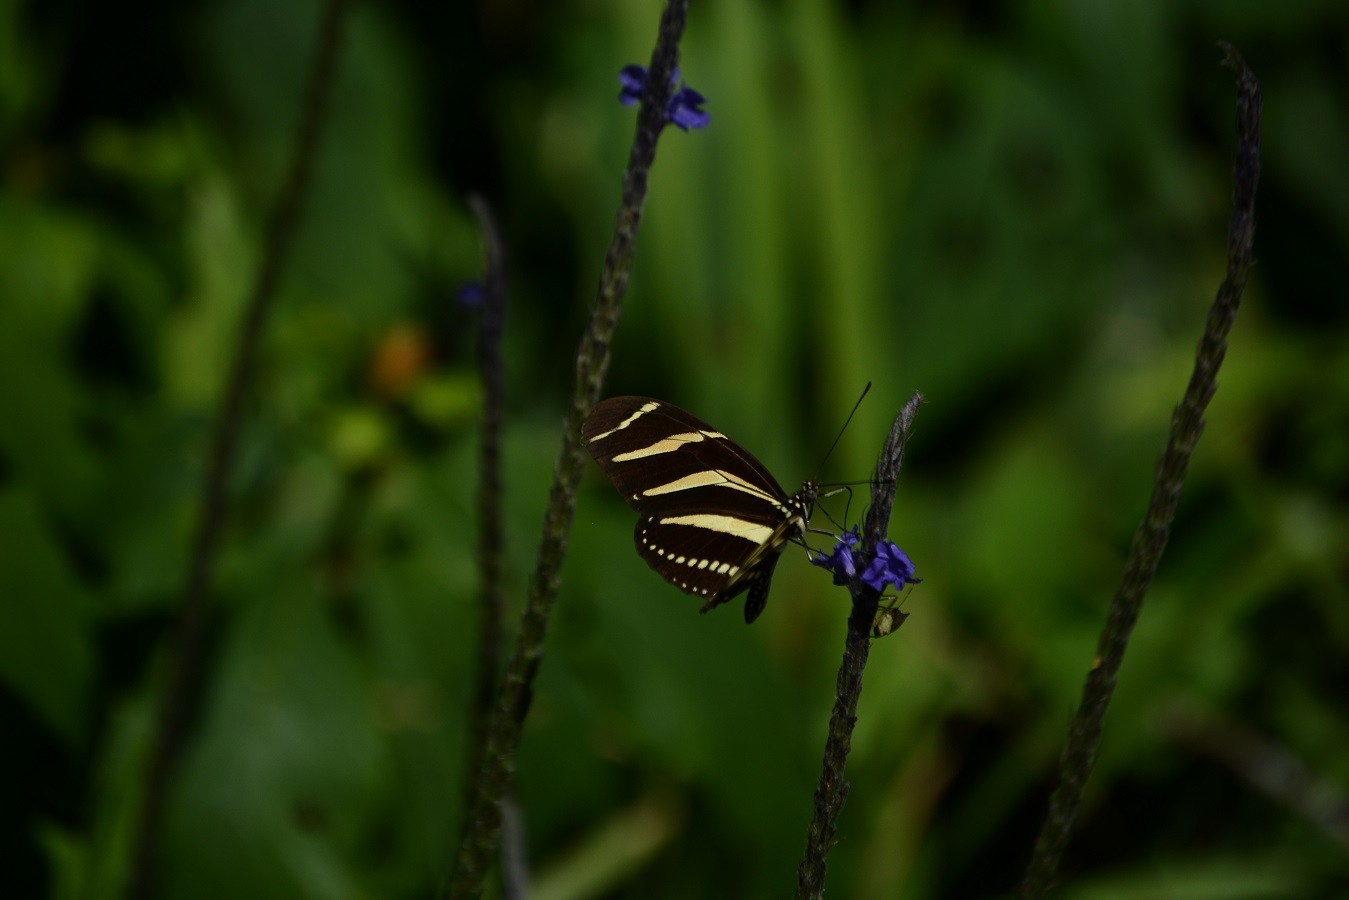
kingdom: Animalia
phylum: Arthropoda
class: Insecta
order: Lepidoptera
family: Nymphalidae
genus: Heliconius
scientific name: Heliconius charithonia
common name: Zebra long wing
